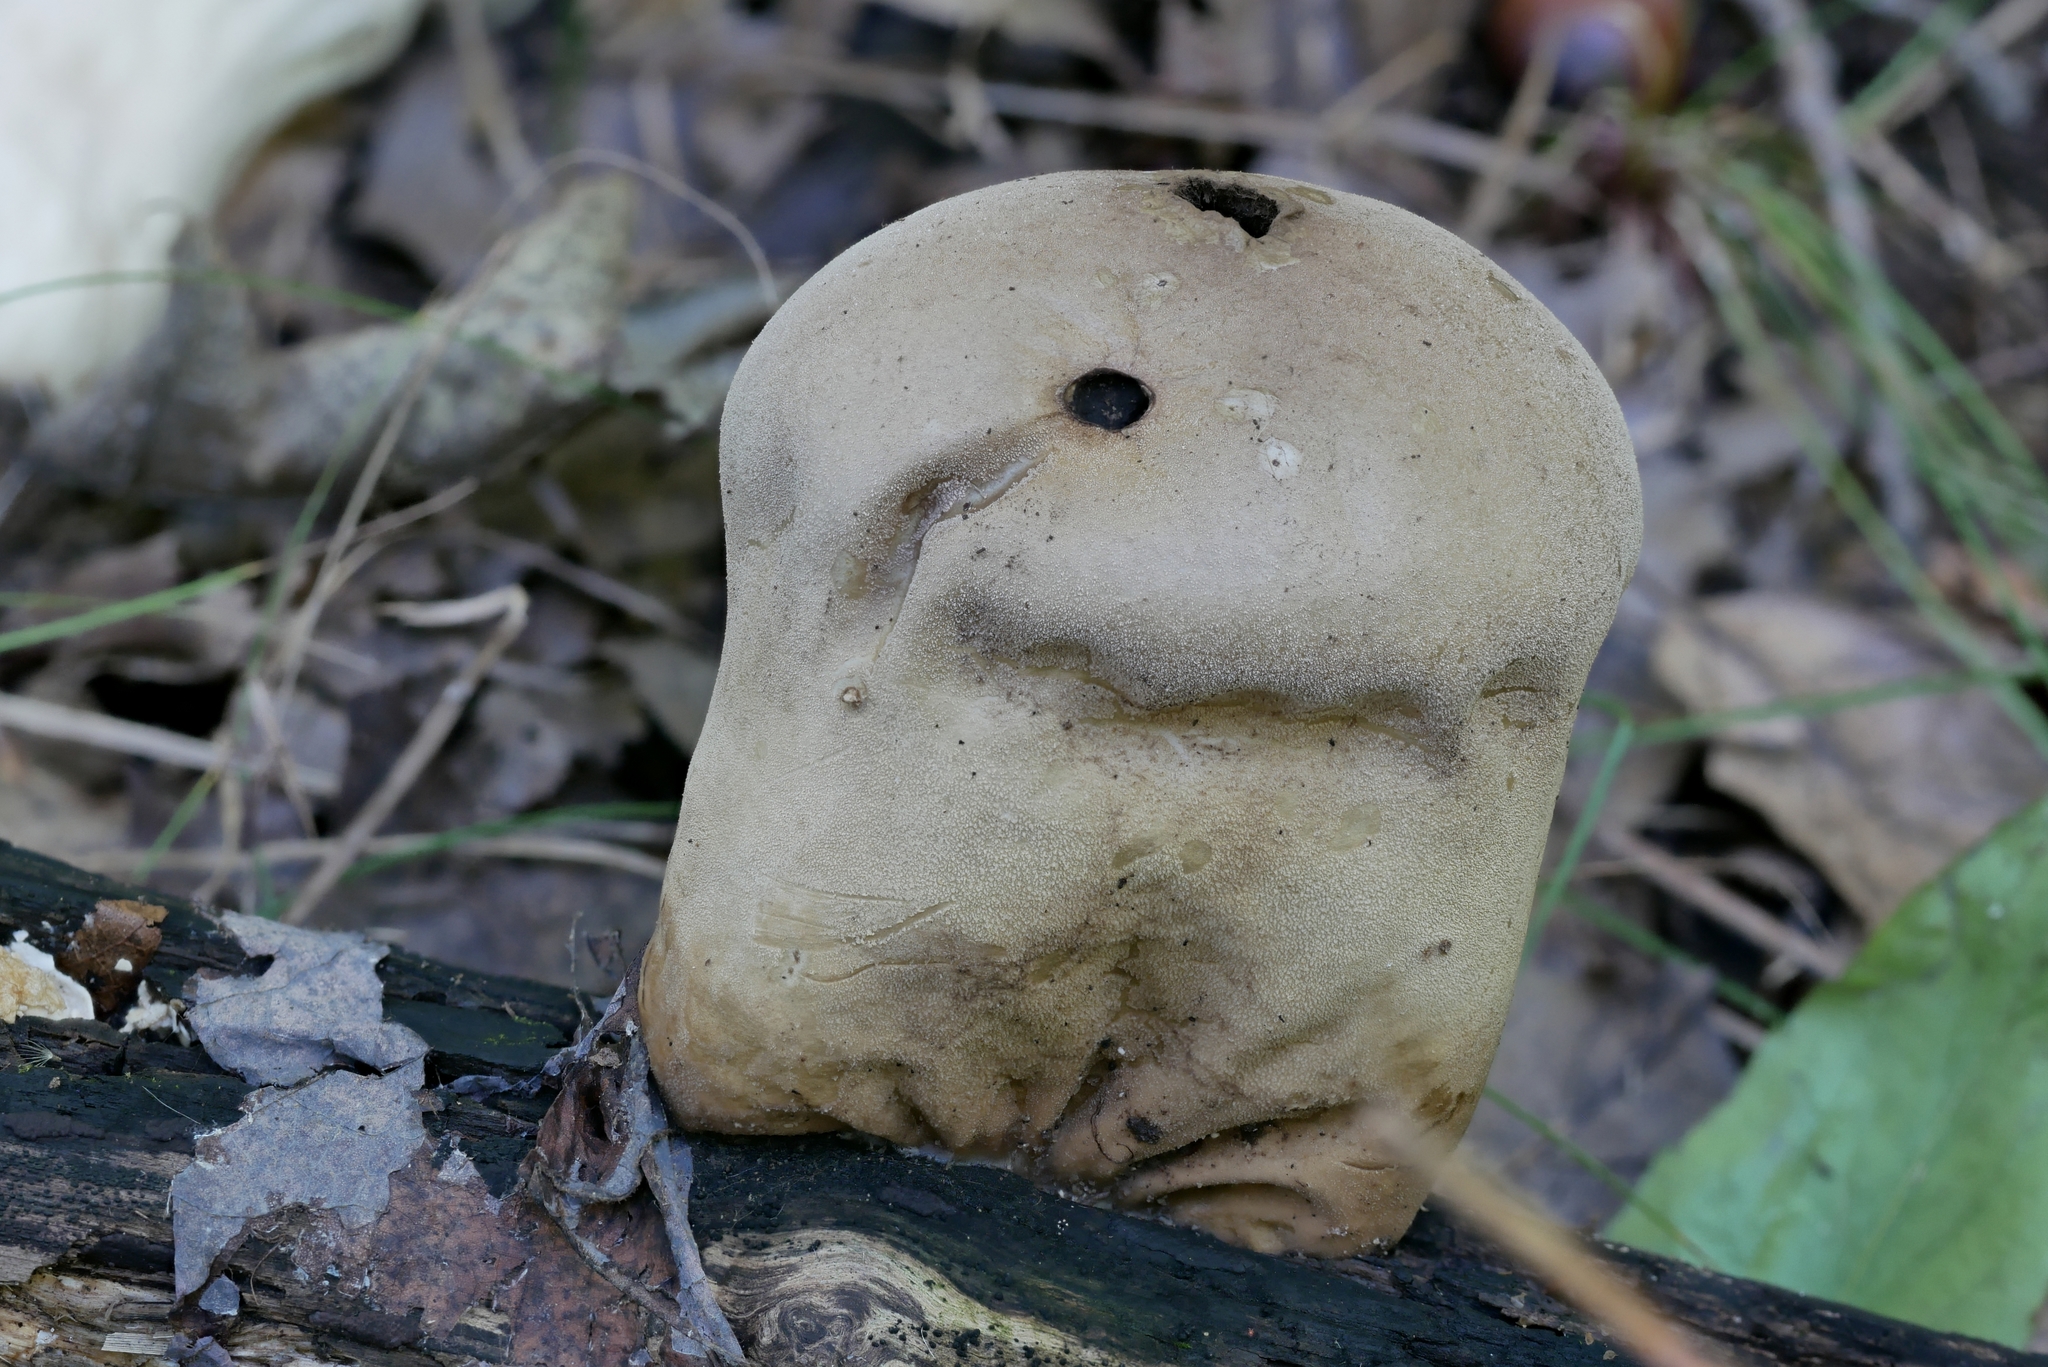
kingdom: Fungi
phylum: Basidiomycota
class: Agaricomycetes
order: Agaricales
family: Lycoperdaceae
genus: Lycoperdon
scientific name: Lycoperdon excipuliforme
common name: Pestle puffball
